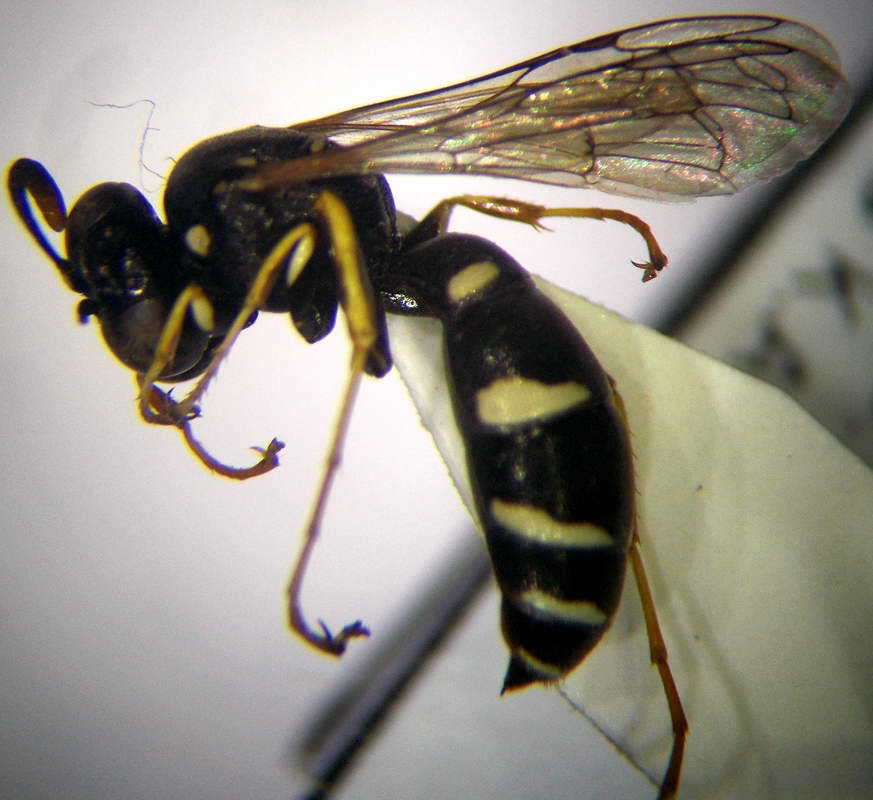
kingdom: Animalia
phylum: Arthropoda
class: Insecta
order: Hymenoptera
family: Crabronidae
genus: Ammatomus
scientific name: Ammatomus rogenhoferi
